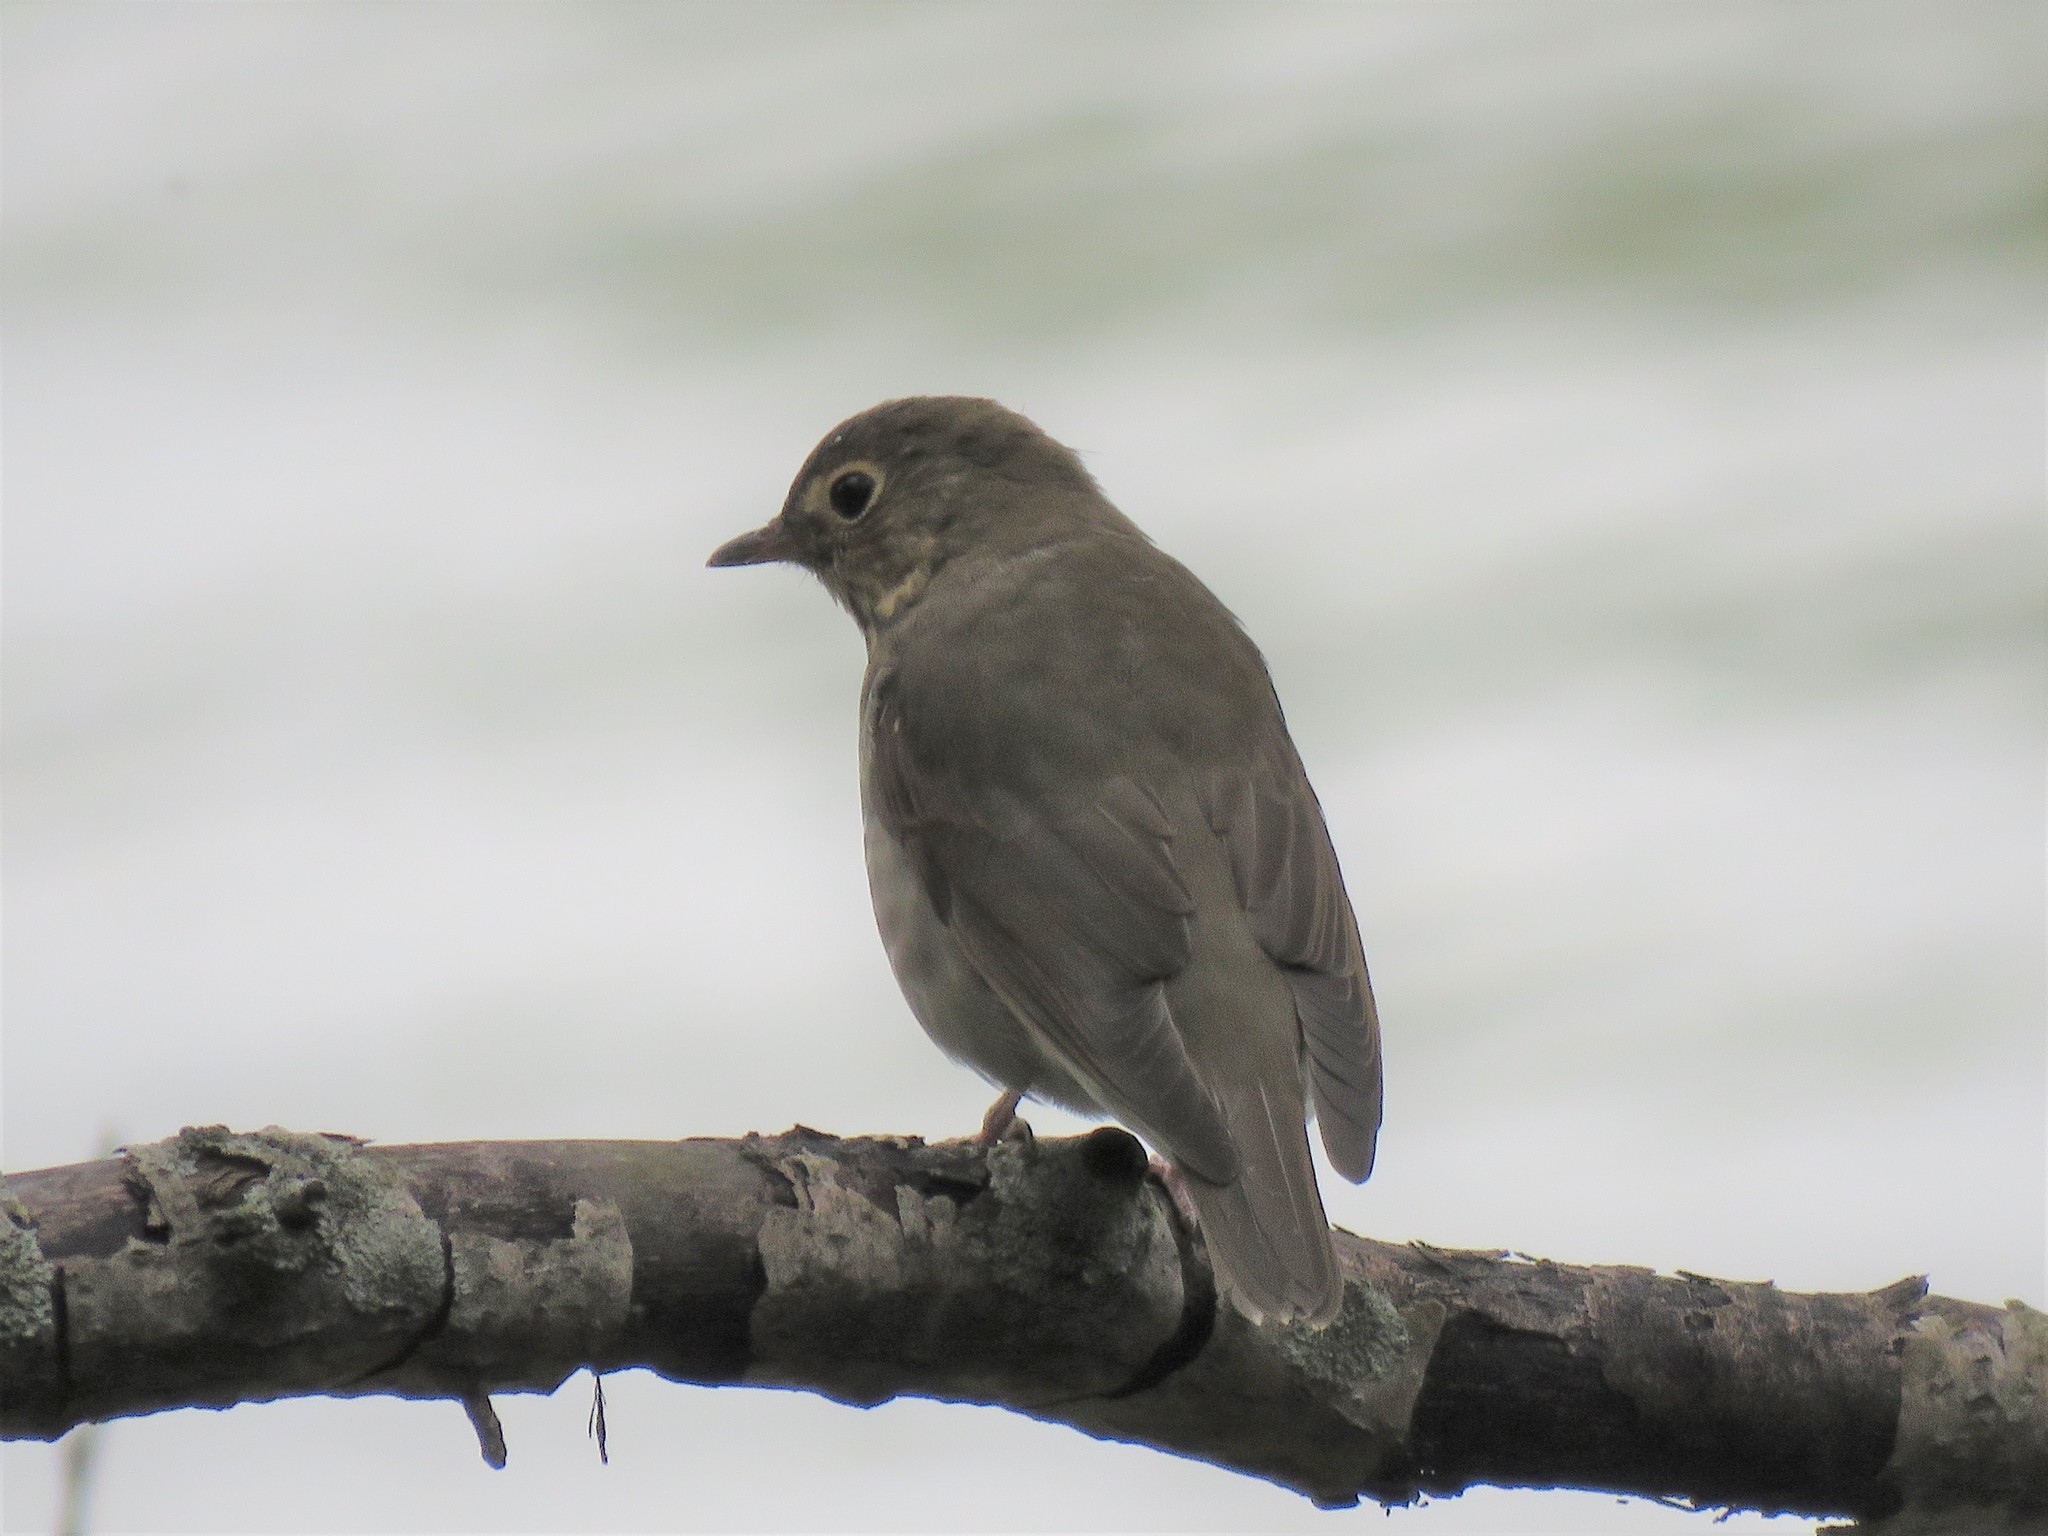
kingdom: Animalia
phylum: Chordata
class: Aves
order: Passeriformes
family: Turdidae
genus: Catharus
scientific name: Catharus ustulatus
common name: Swainson's thrush
